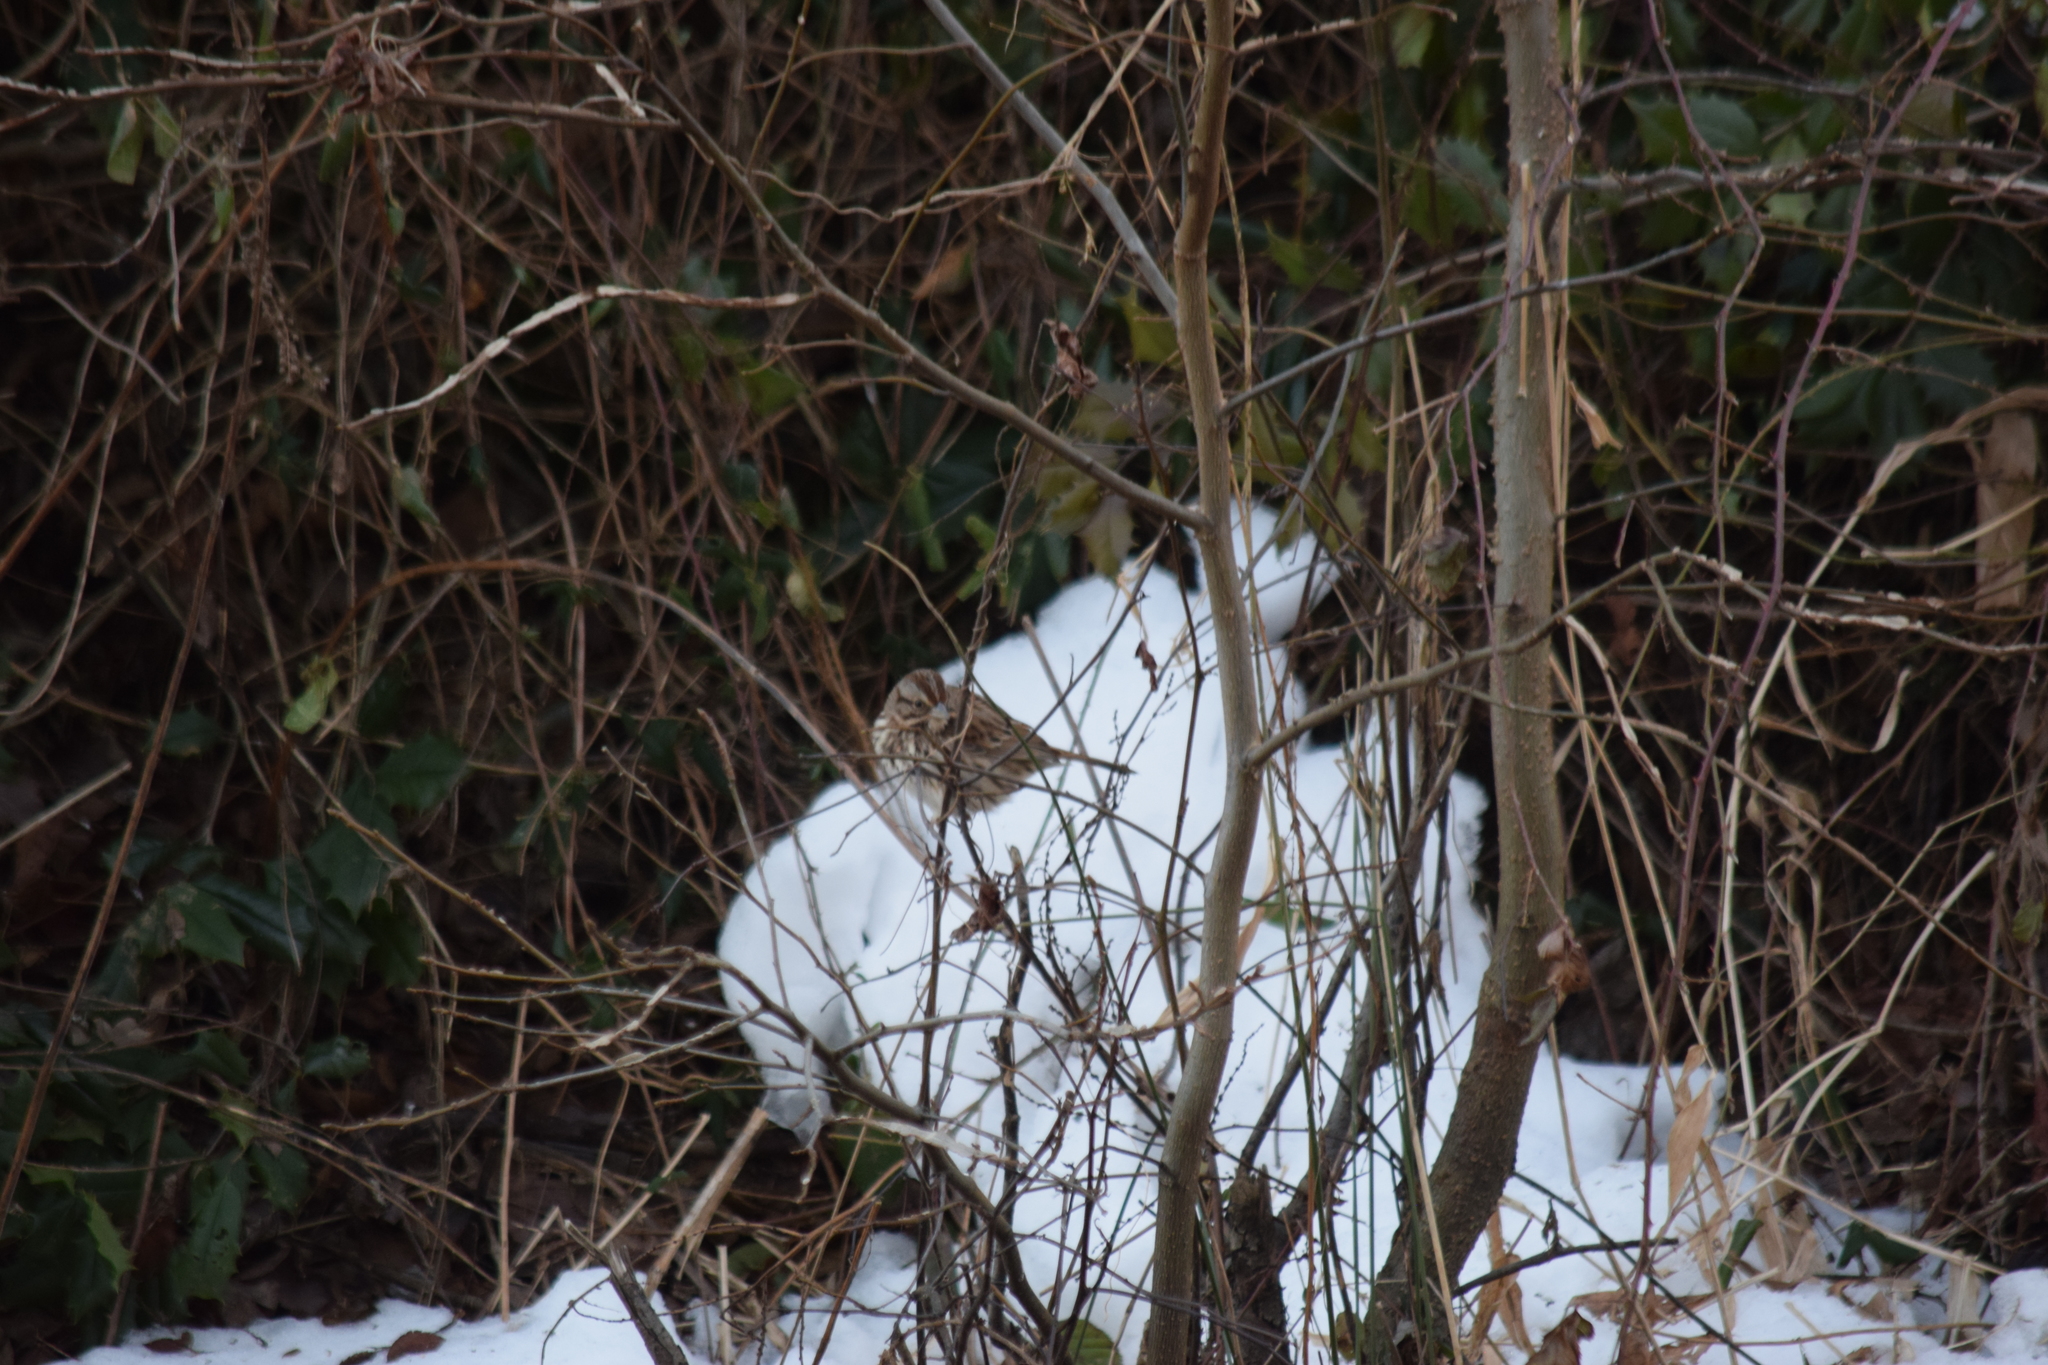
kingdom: Animalia
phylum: Chordata
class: Aves
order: Passeriformes
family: Passerellidae
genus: Melospiza
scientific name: Melospiza melodia
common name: Song sparrow
